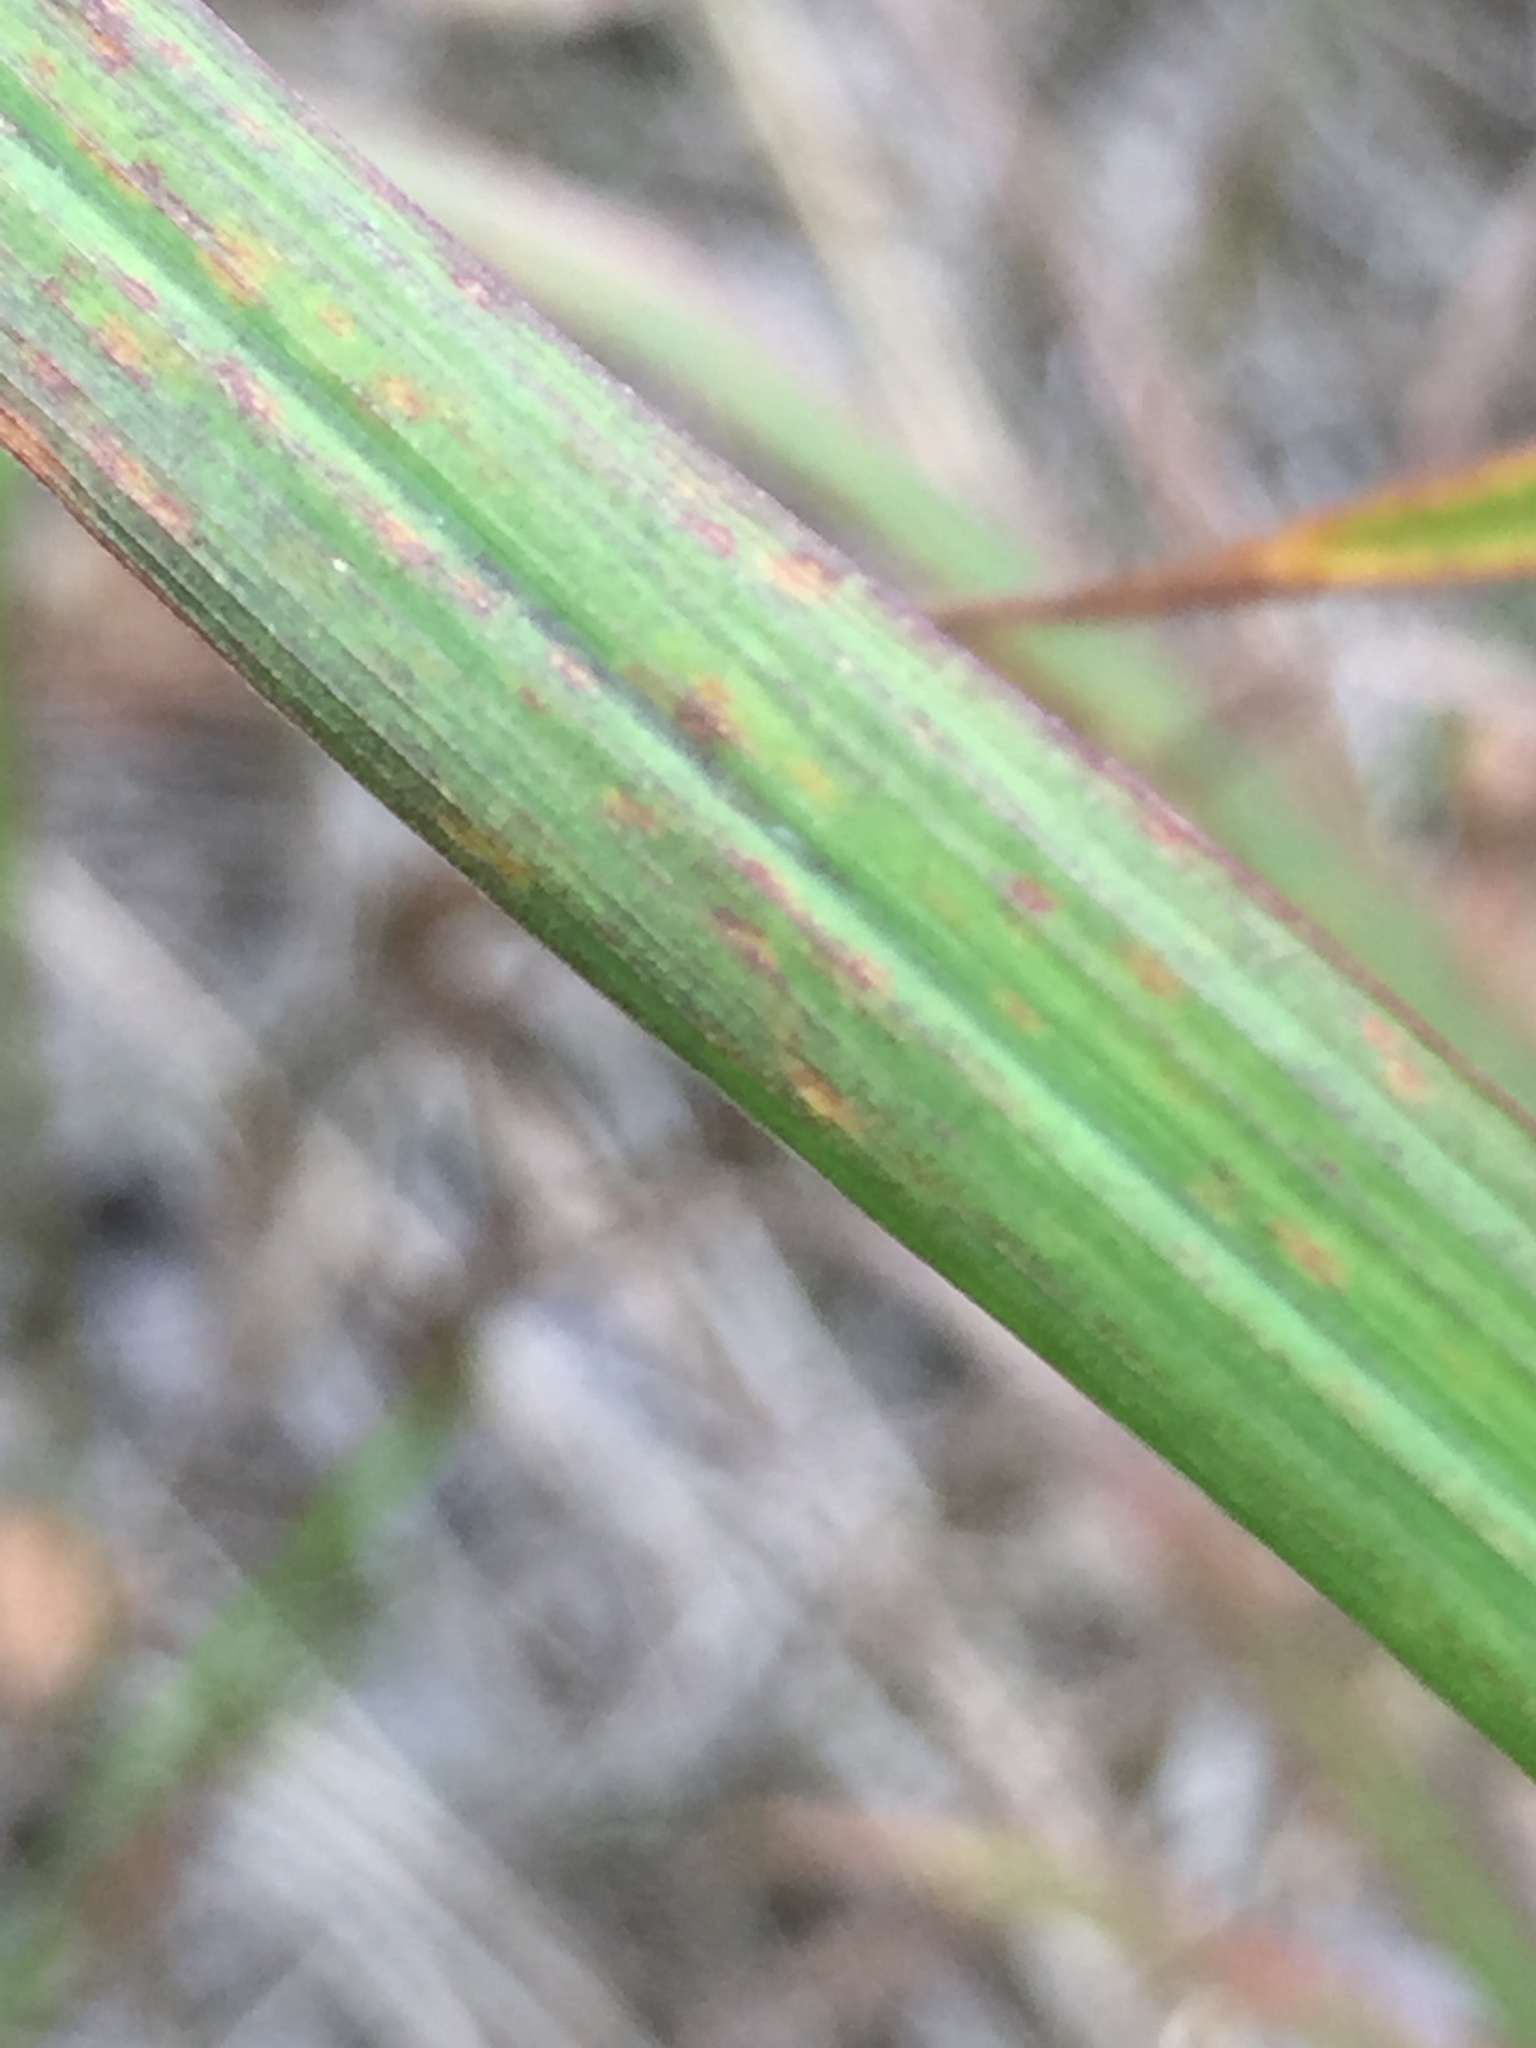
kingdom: Plantae
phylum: Tracheophyta
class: Liliopsida
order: Poales
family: Poaceae
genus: Andropogon
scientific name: Andropogon gerardi
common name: Big bluestem
